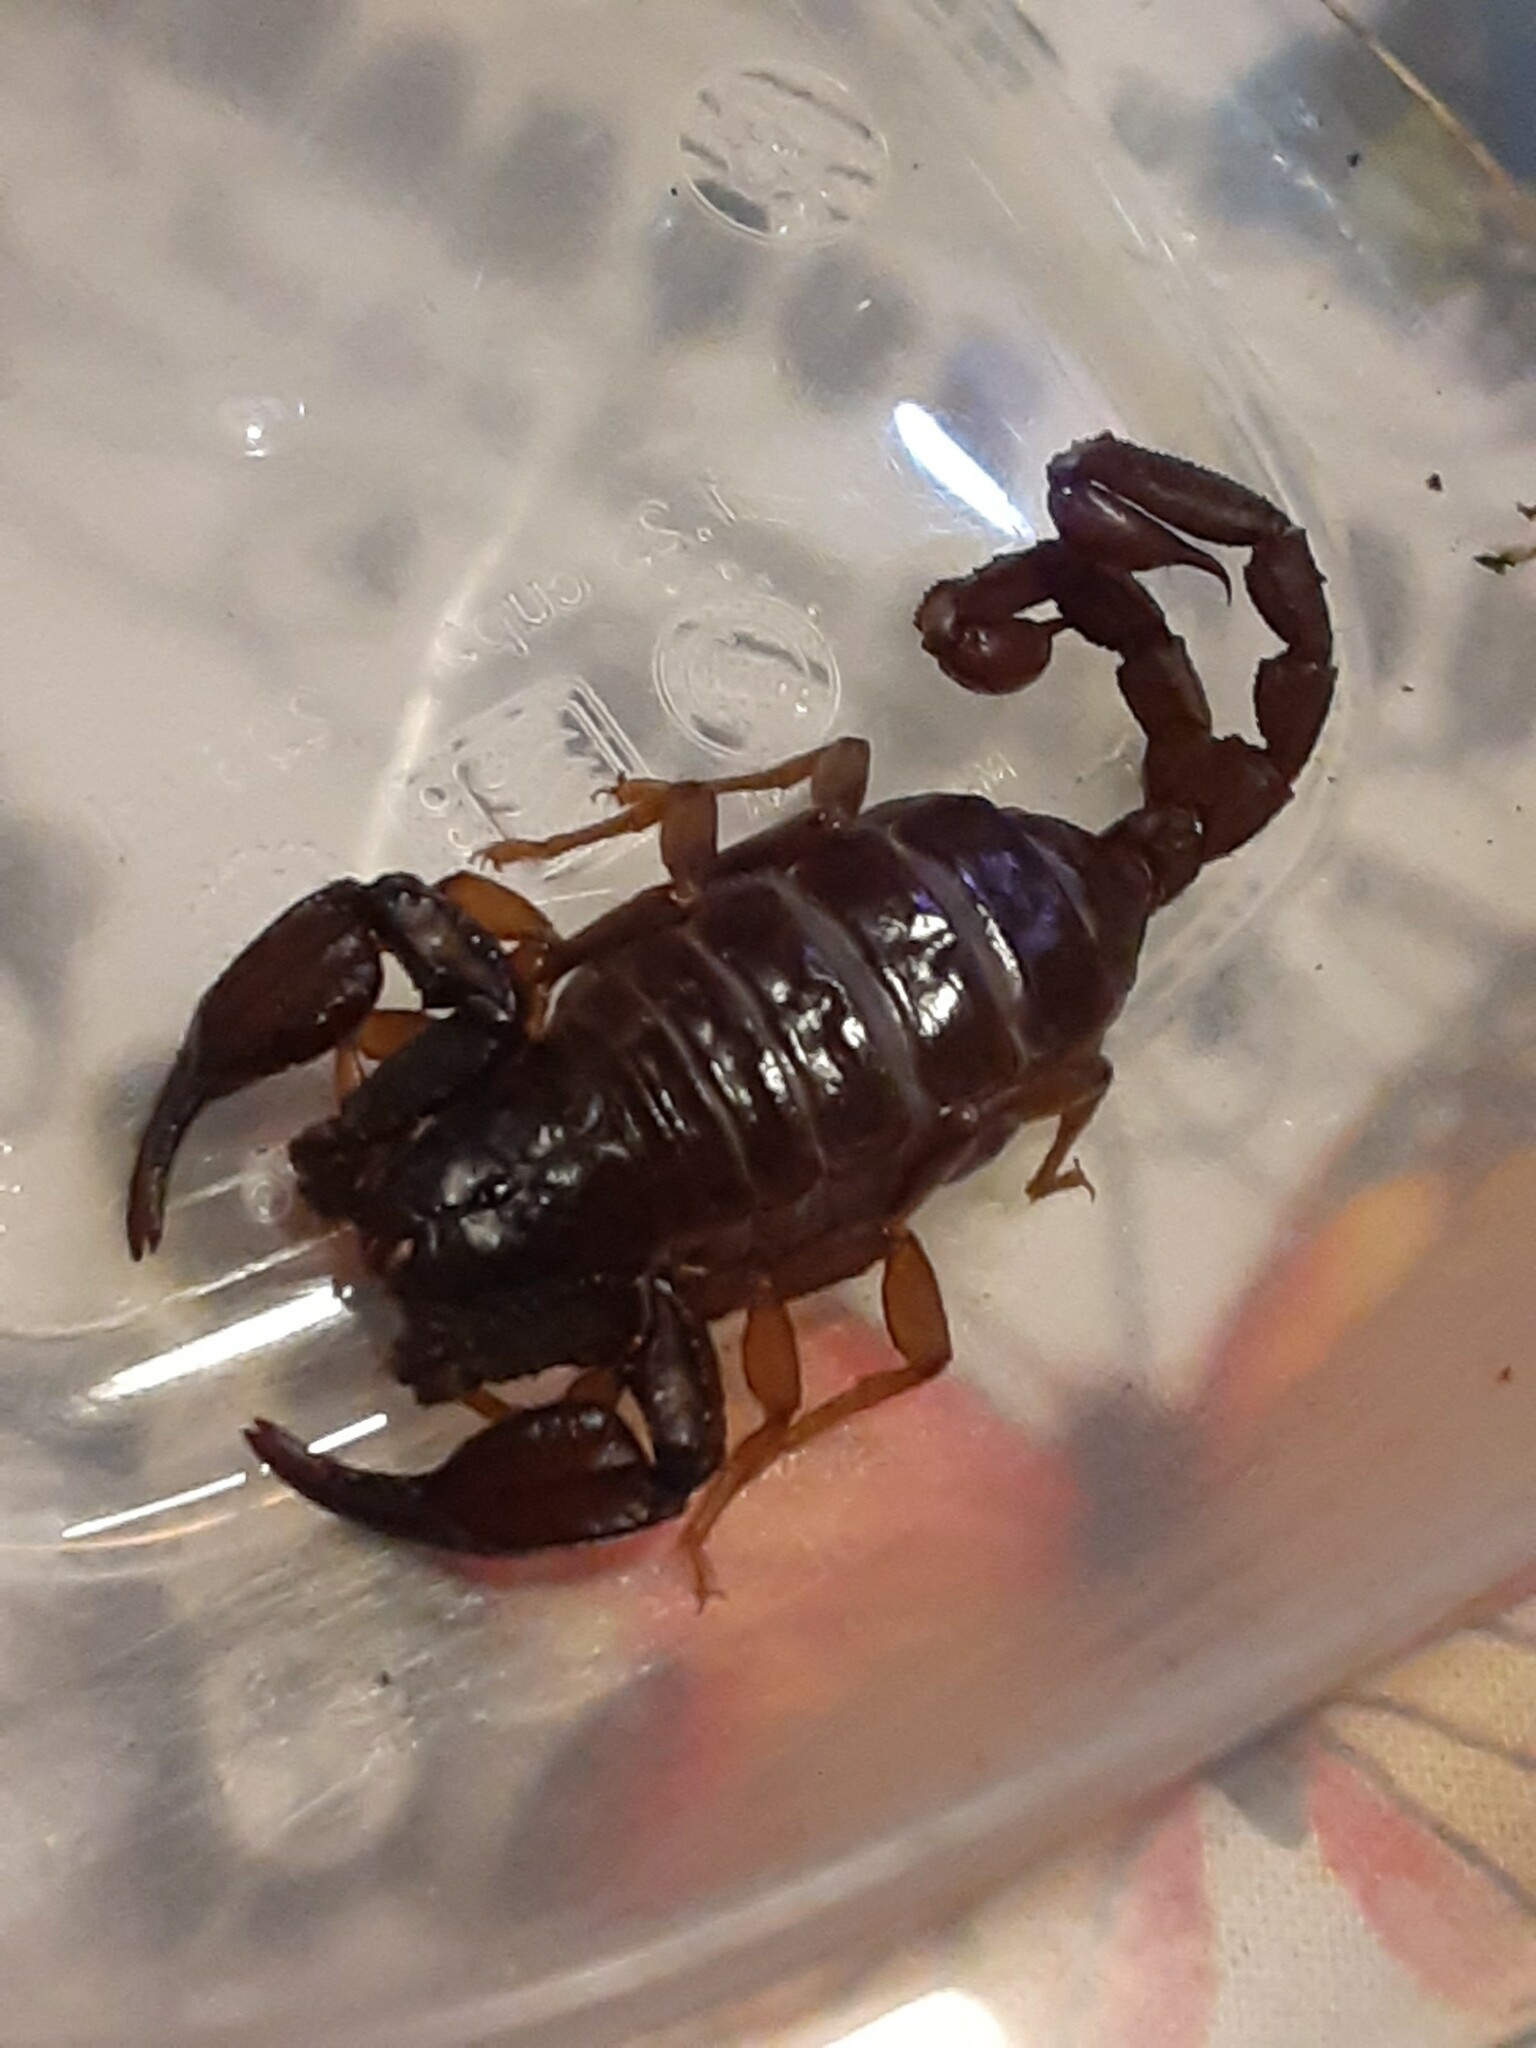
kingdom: Animalia
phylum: Arthropoda
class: Arachnida
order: Scorpiones
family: Chactidae
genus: Uroctonus
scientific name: Uroctonus mordax
